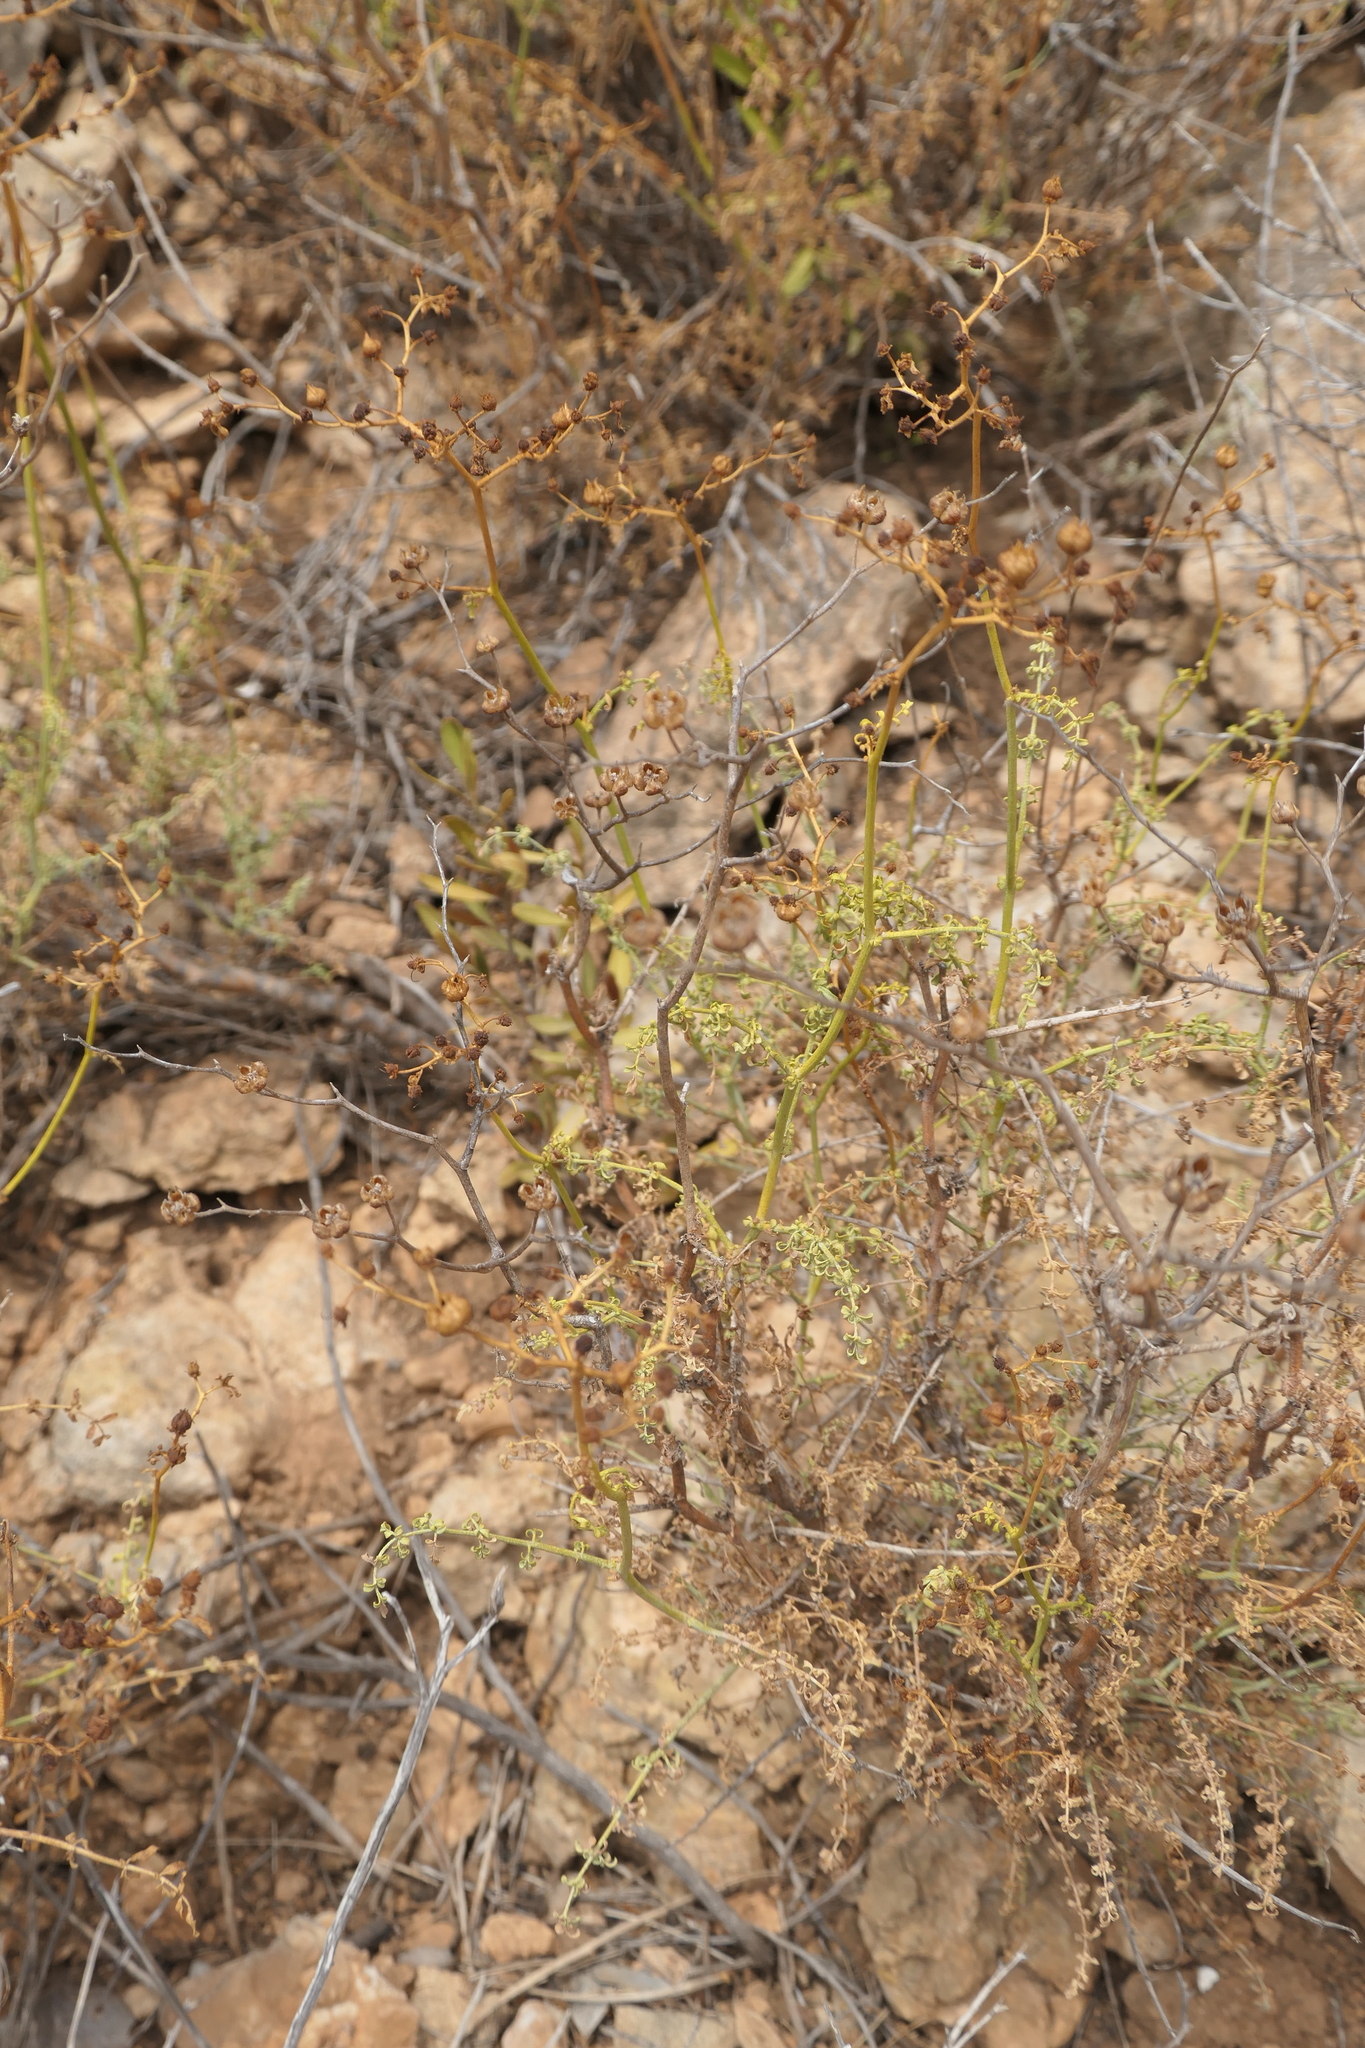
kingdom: Plantae
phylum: Tracheophyta
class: Magnoliopsida
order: Sapindales
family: Rutaceae
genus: Ruta
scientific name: Ruta angustifolia
